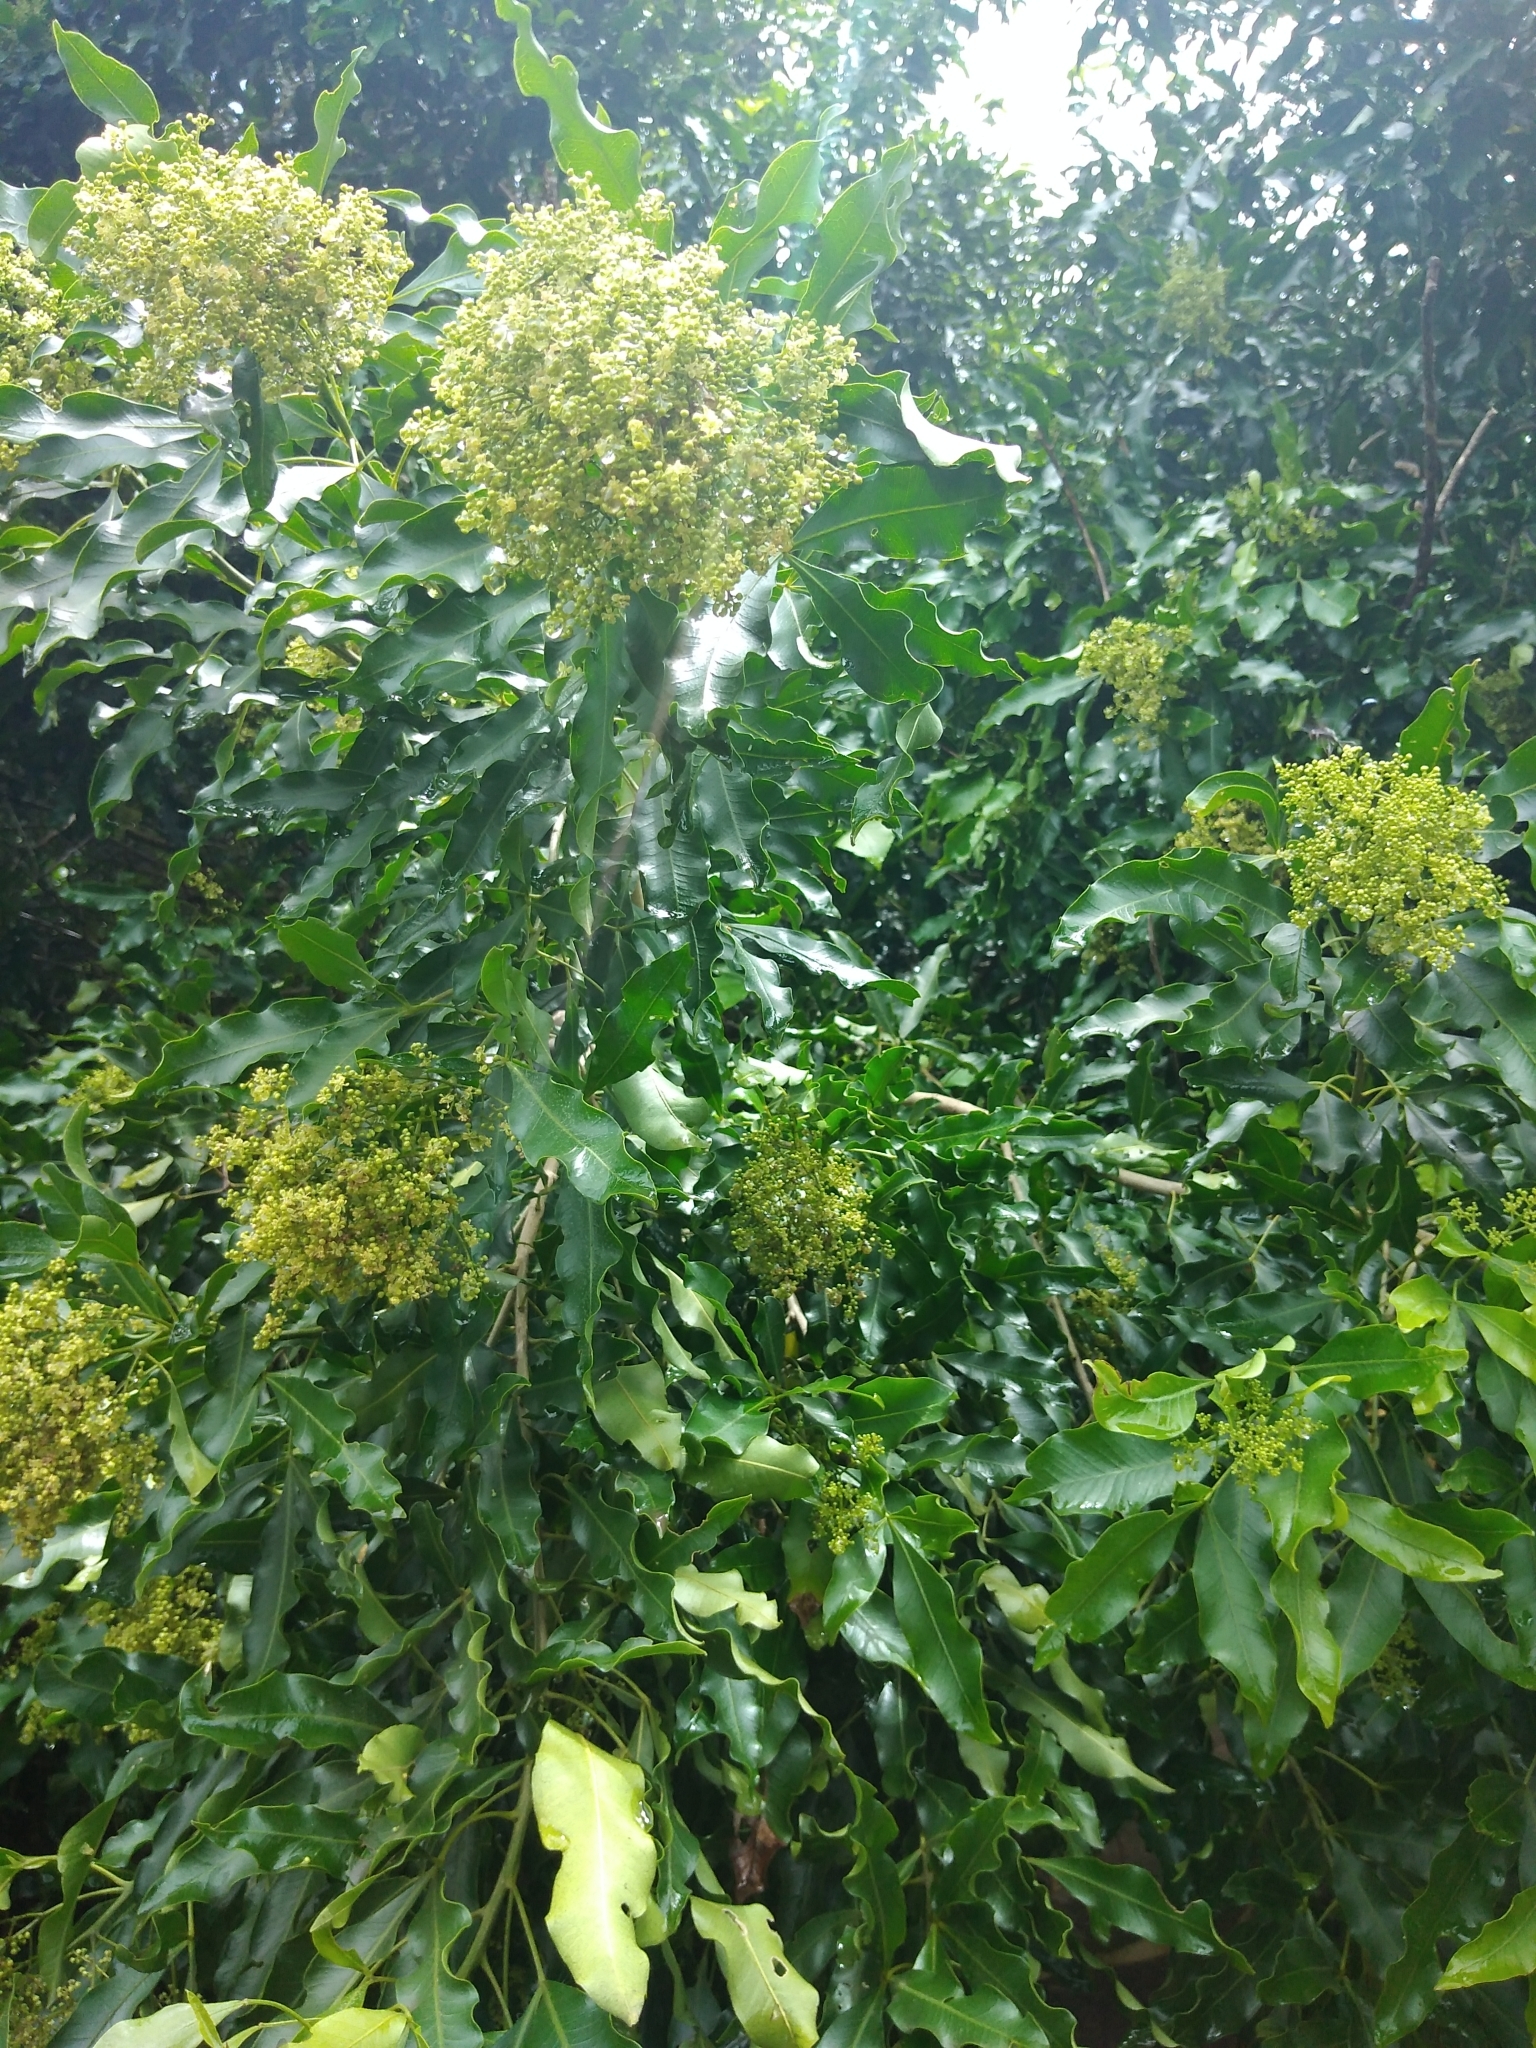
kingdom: Plantae
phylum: Tracheophyta
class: Magnoliopsida
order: Sapindales
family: Rutaceae
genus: Vepris
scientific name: Vepris lanceolata
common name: White ironwood
